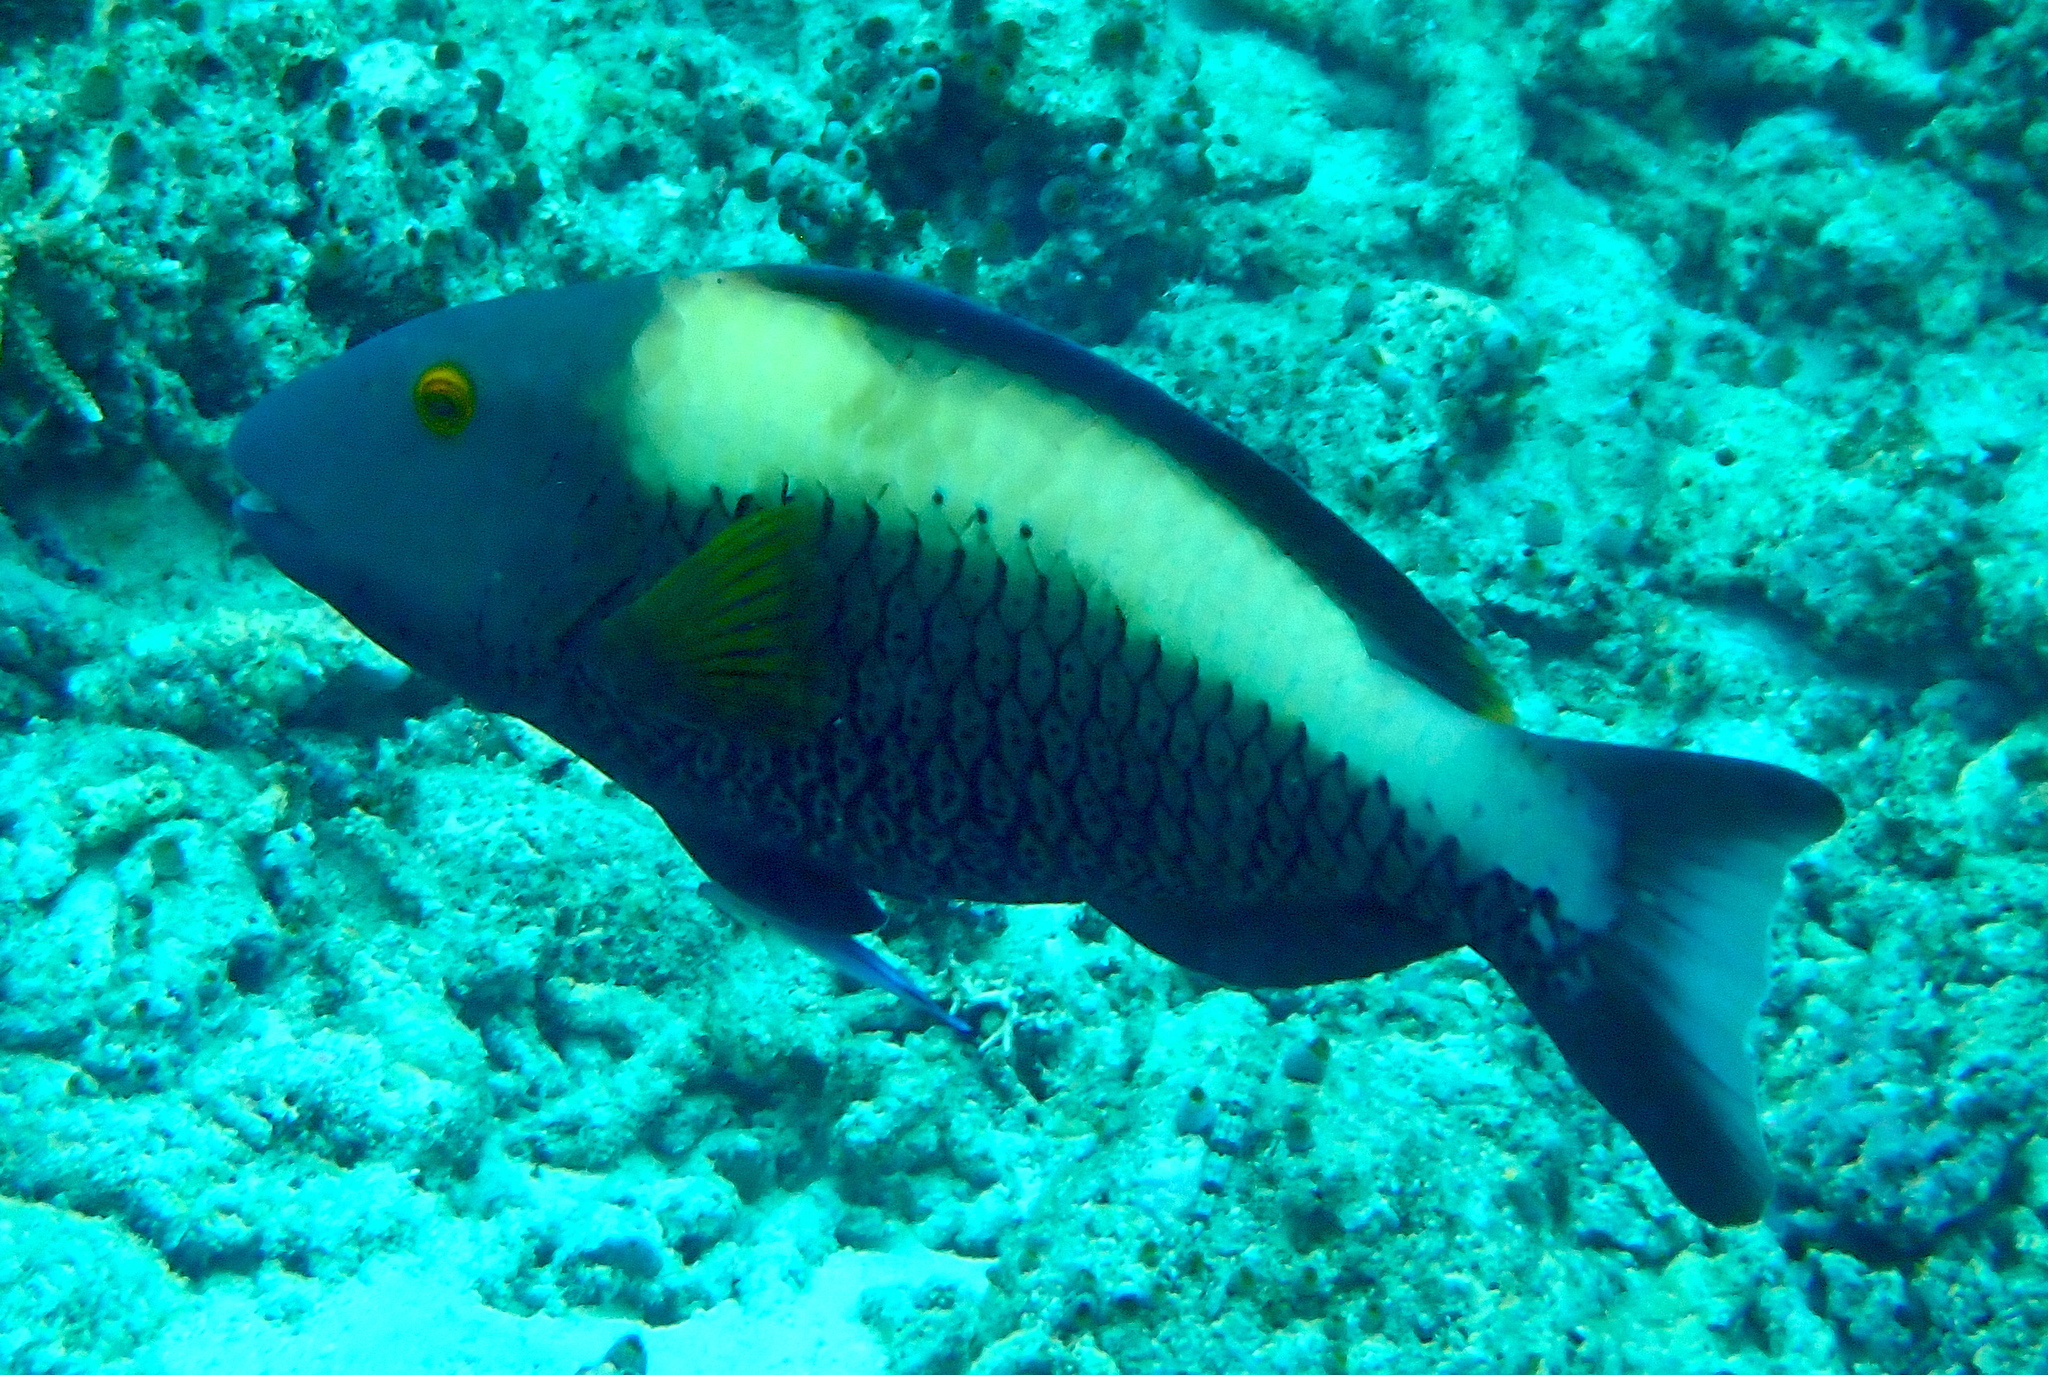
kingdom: Animalia
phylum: Chordata
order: Perciformes
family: Scaridae
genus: Cetoscarus
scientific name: Cetoscarus ocellatus
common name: Bicolor parrotfish
